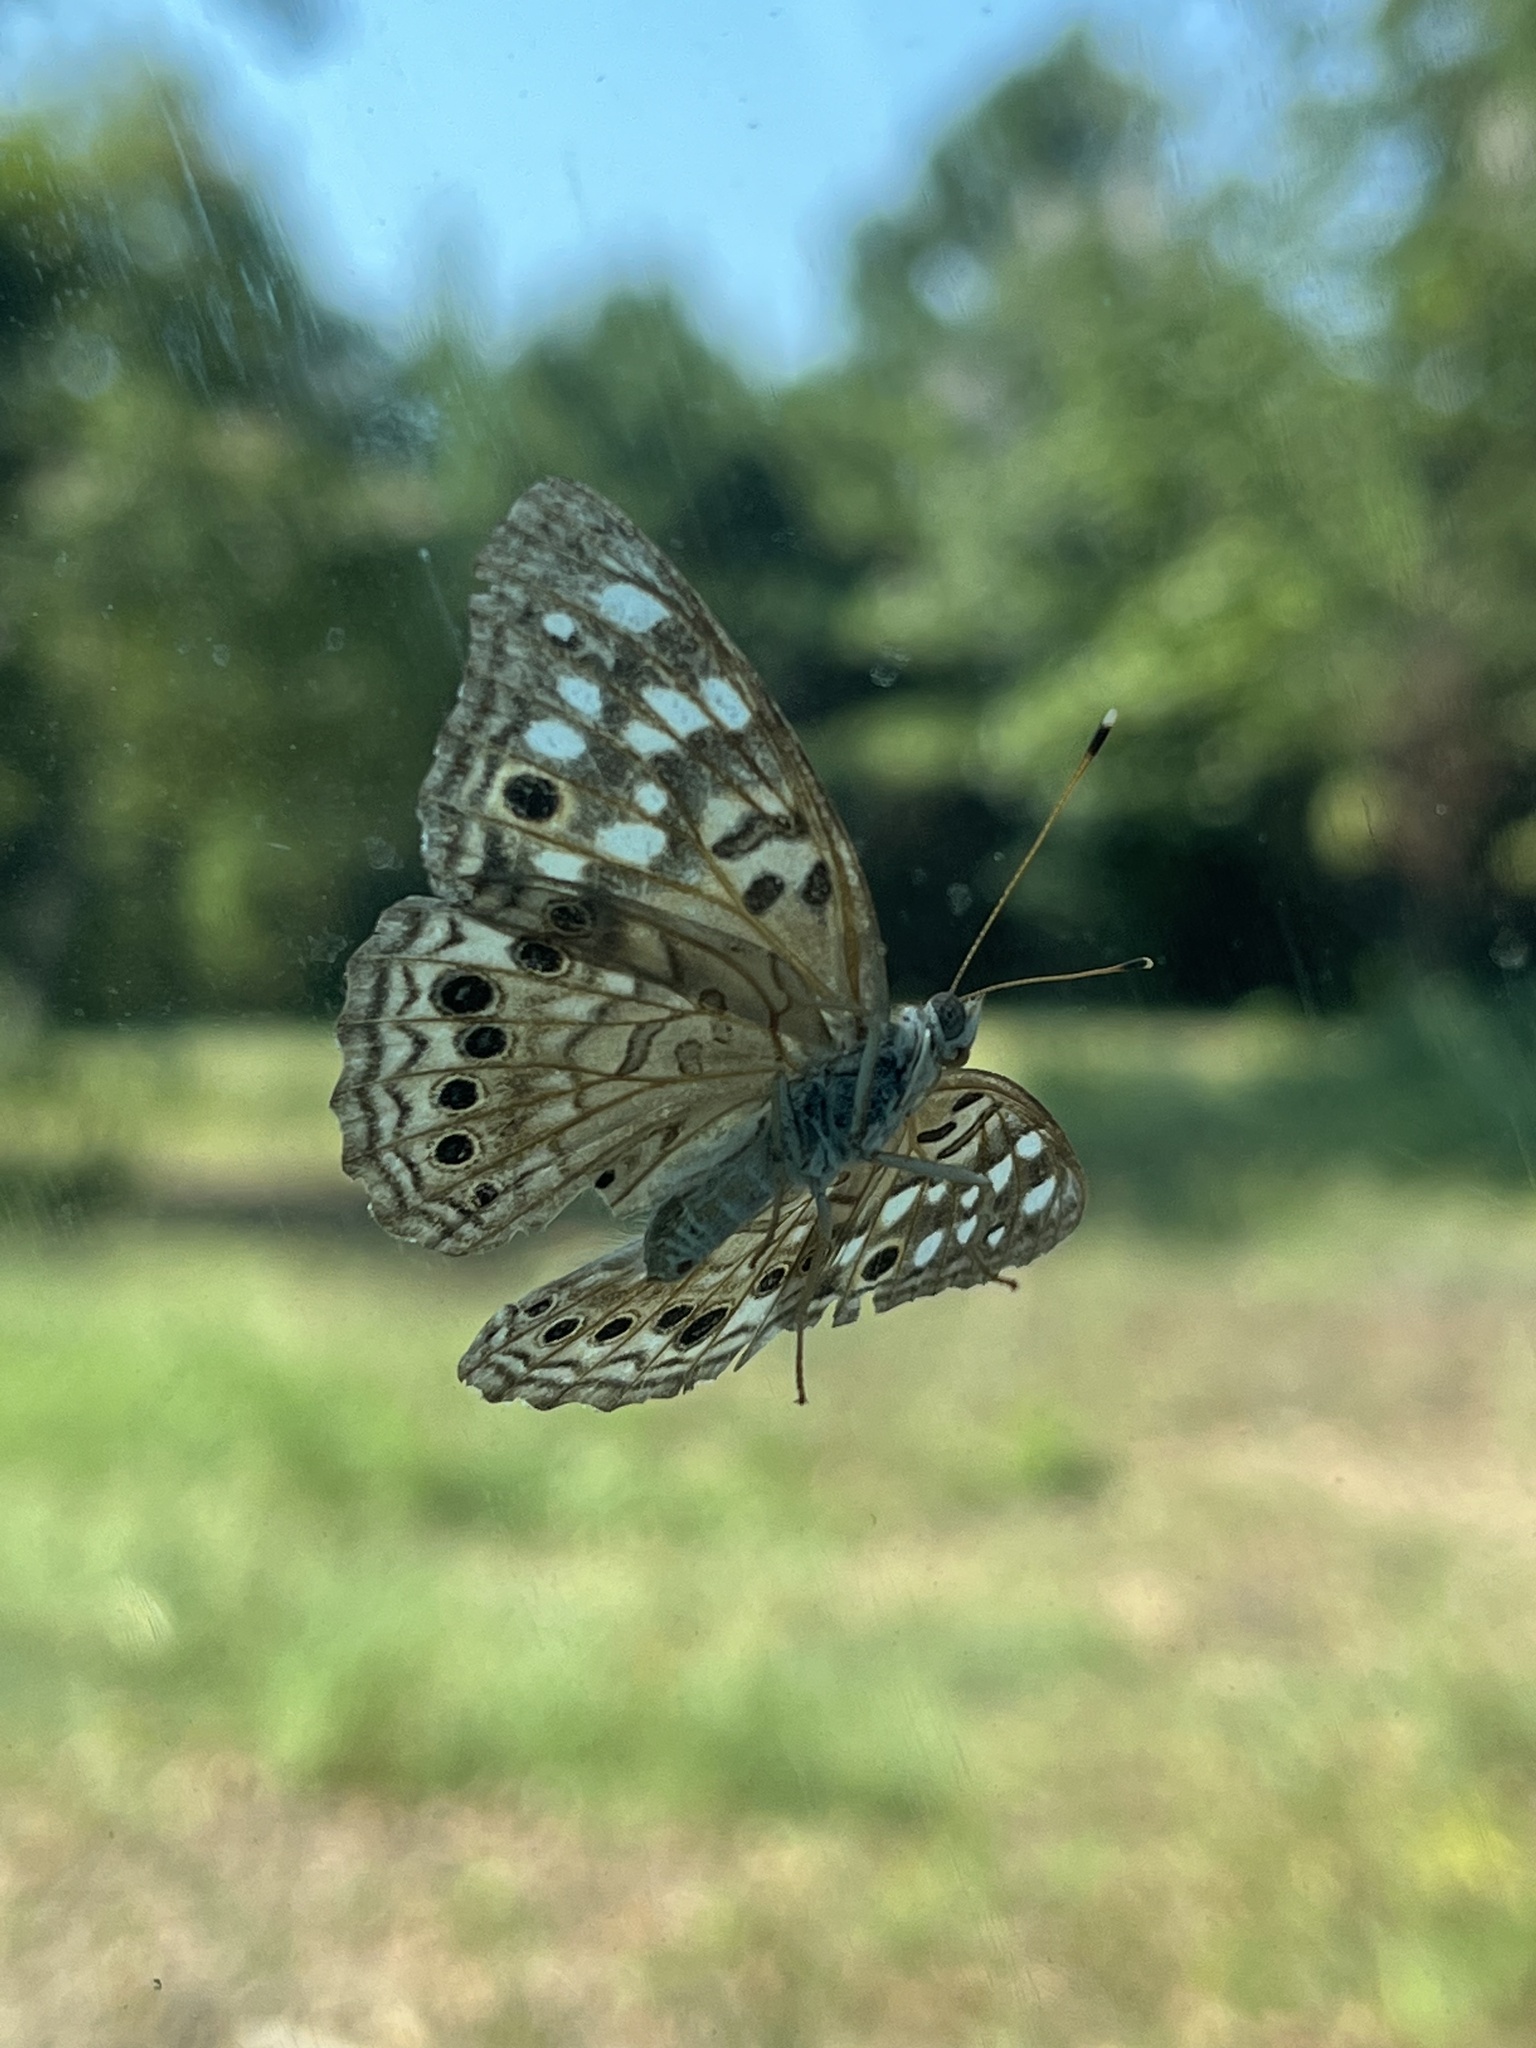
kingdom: Animalia
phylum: Arthropoda
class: Insecta
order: Lepidoptera
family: Nymphalidae
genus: Asterocampa
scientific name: Asterocampa celtis
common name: Hackberry emperor
